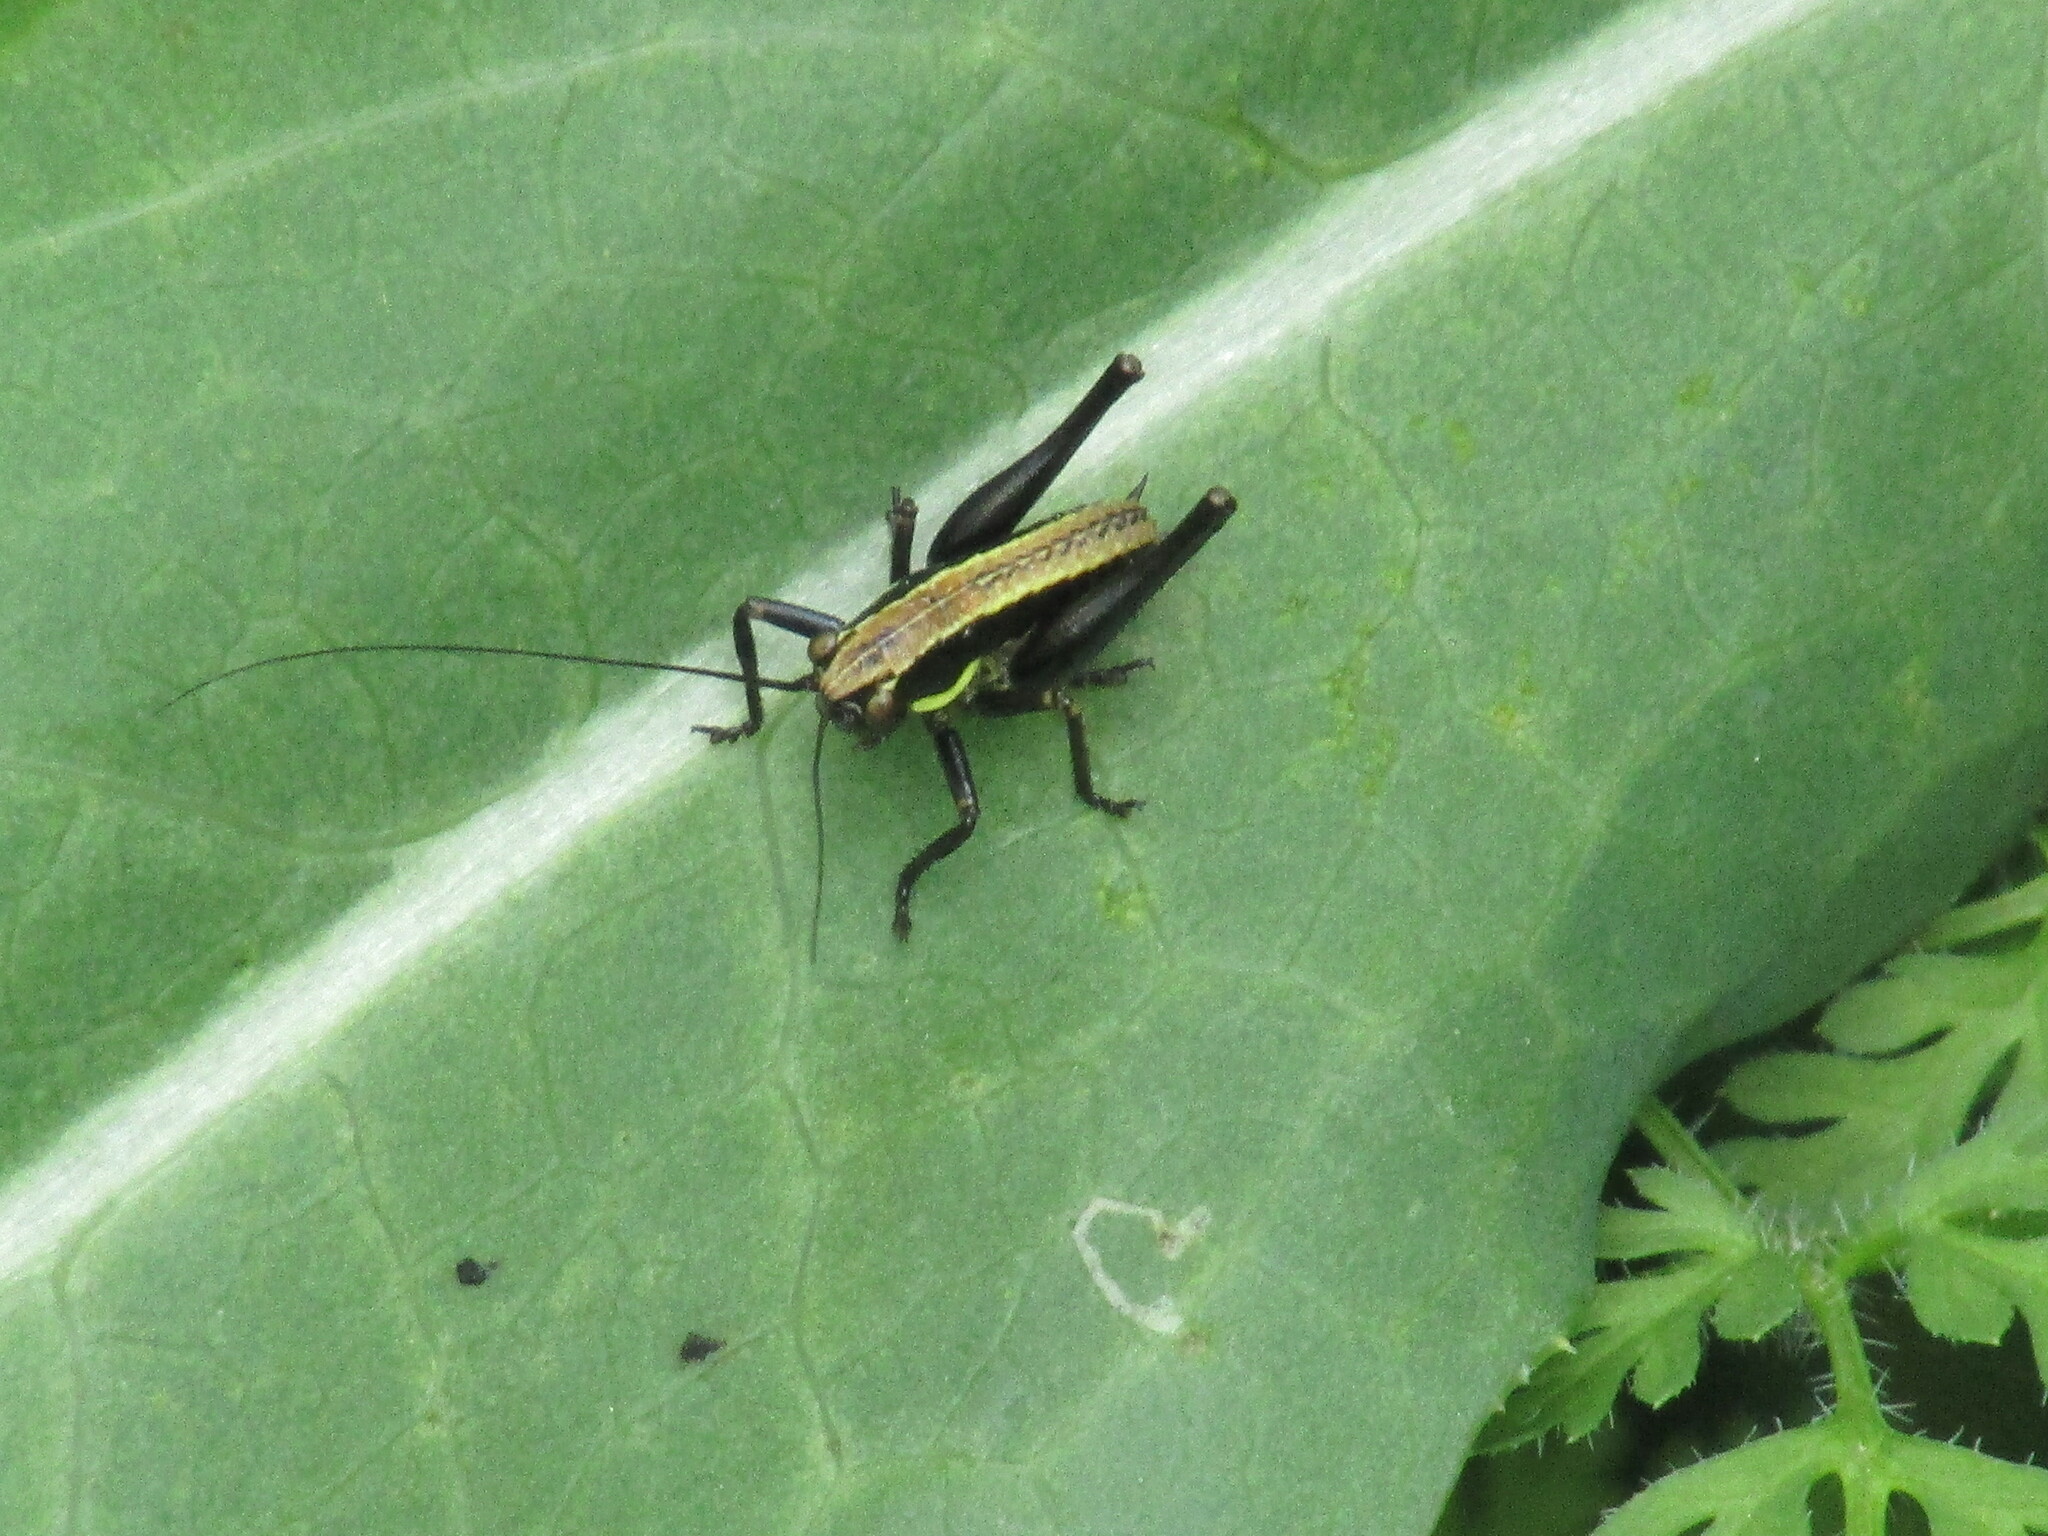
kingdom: Animalia
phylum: Arthropoda
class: Insecta
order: Orthoptera
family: Tettigoniidae
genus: Pholidoptera
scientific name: Pholidoptera griseoaptera
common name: Dark bush-cricket
